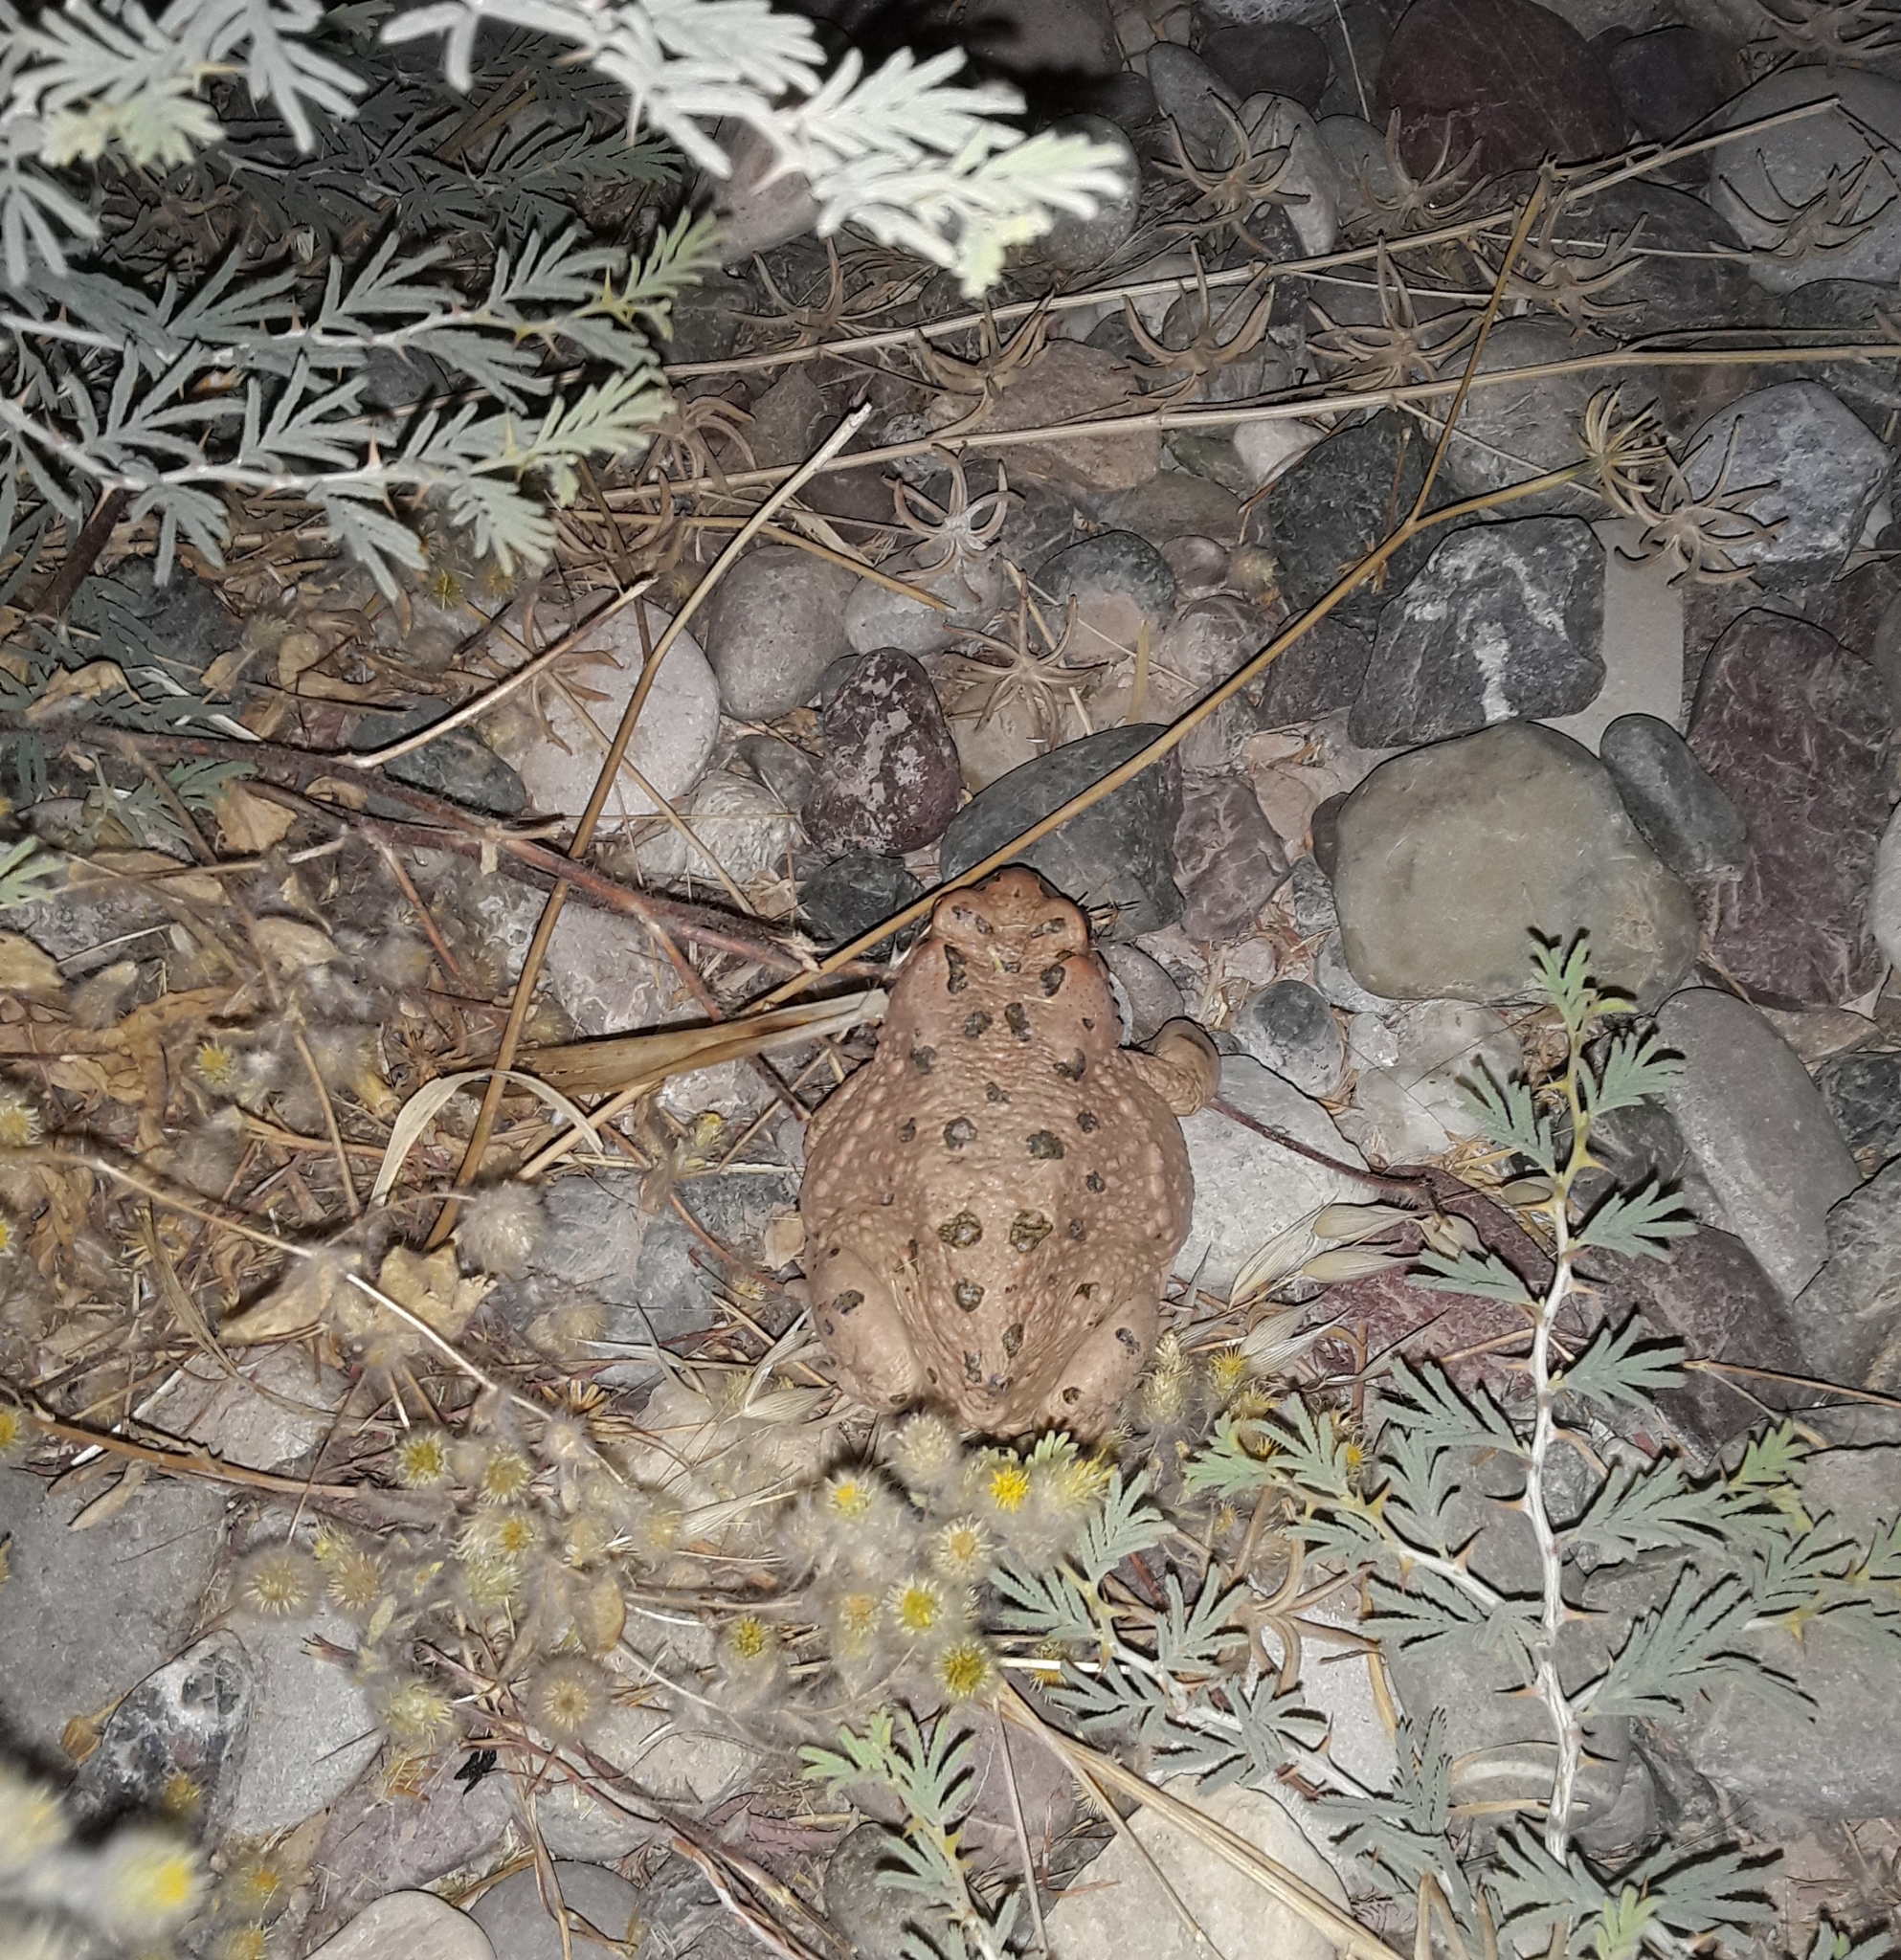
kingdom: Animalia
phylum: Chordata
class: Amphibia
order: Anura
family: Bufonidae
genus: Bufotes
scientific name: Bufotes viridis
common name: European green toad
